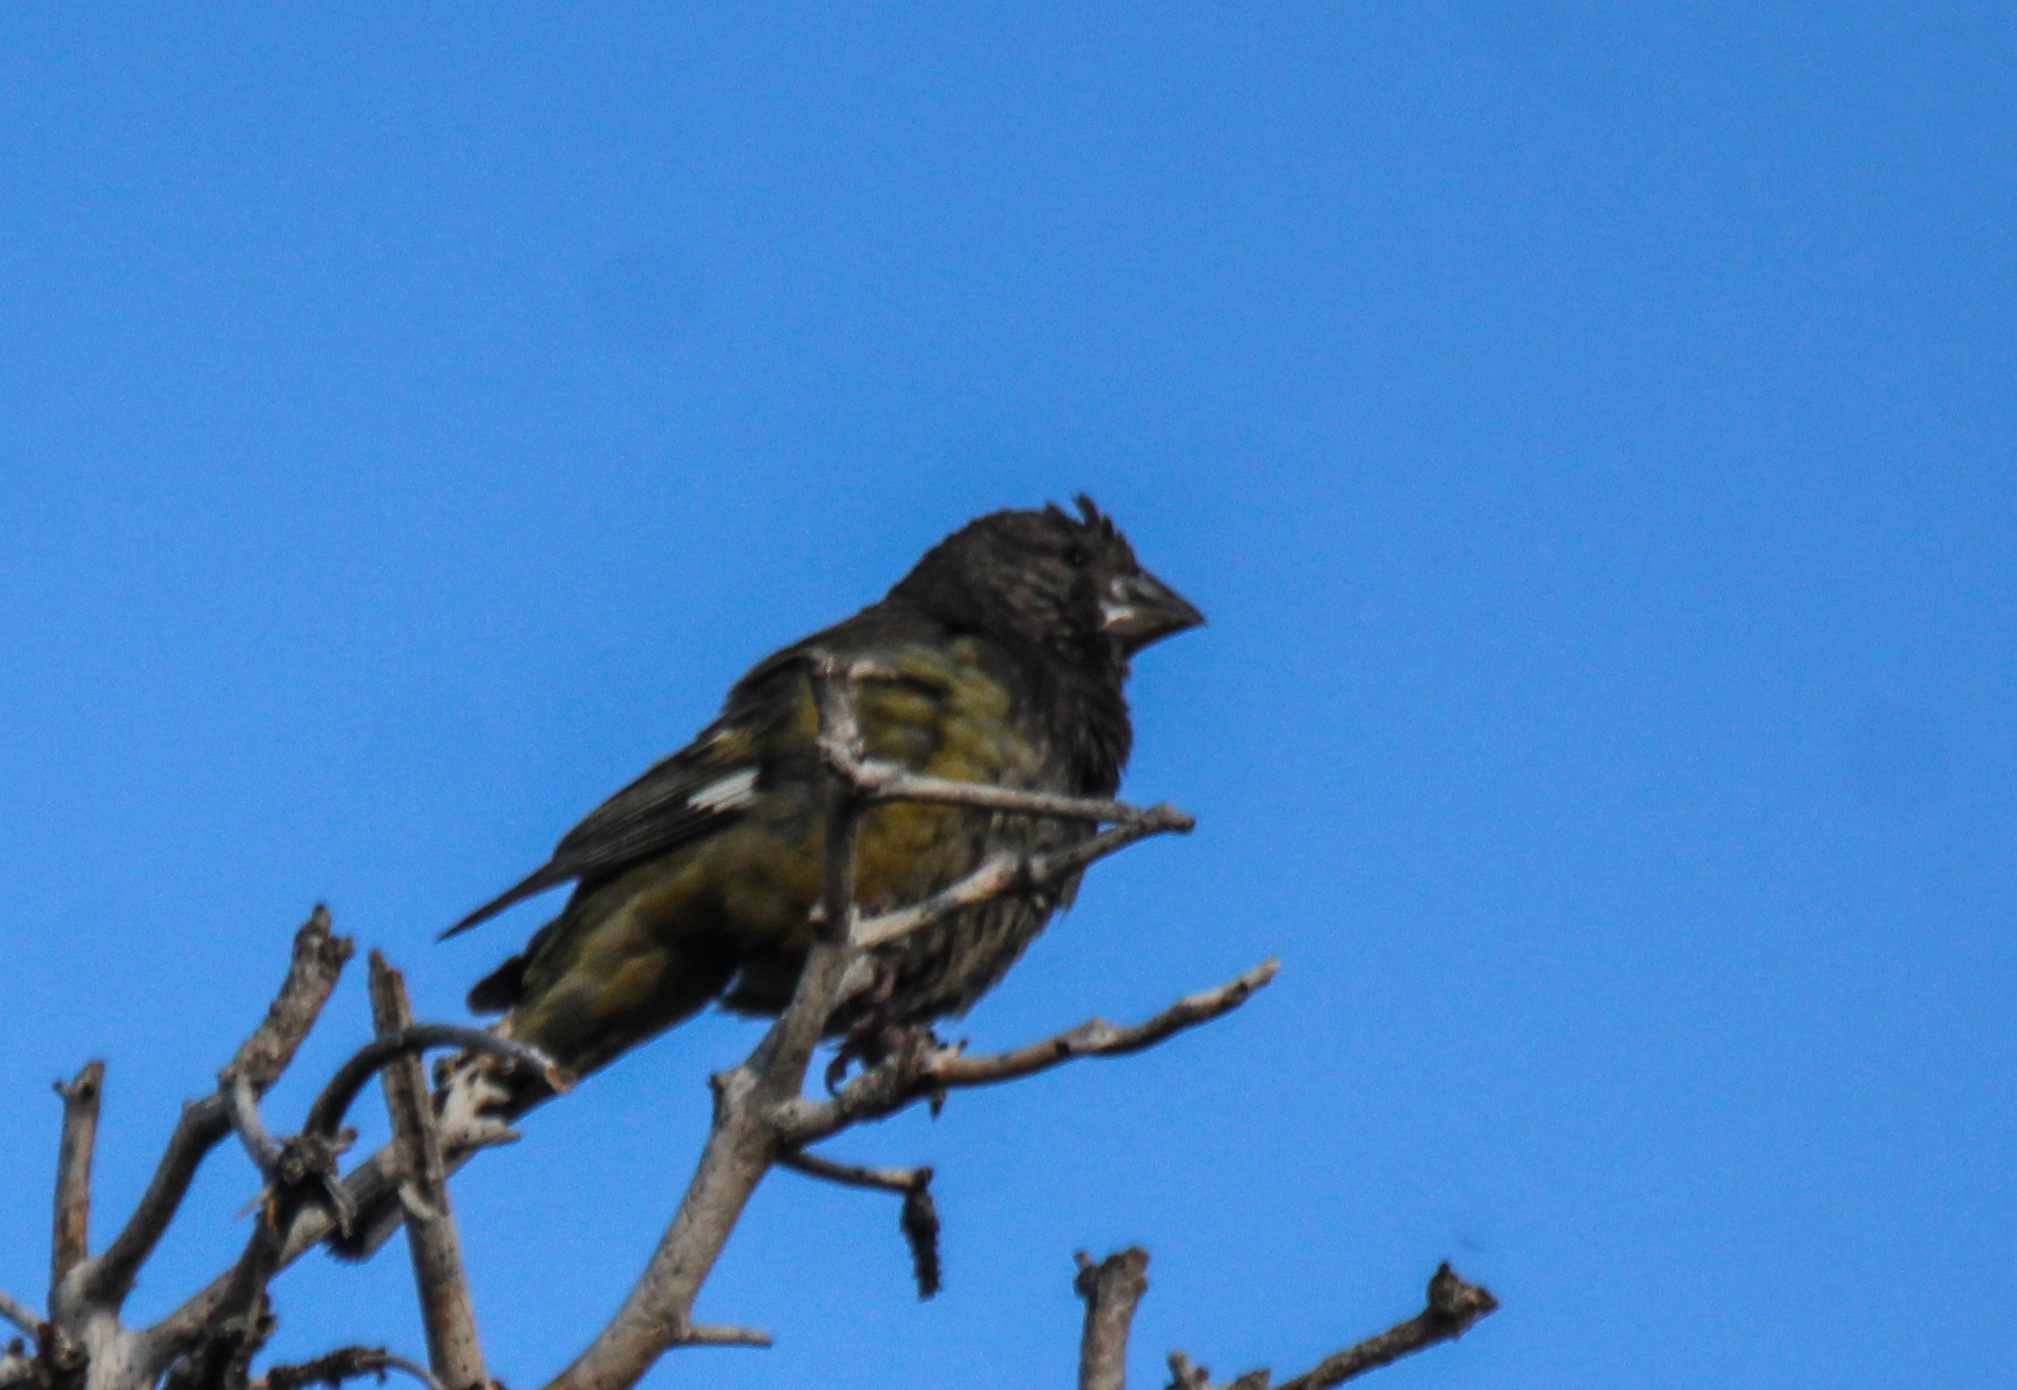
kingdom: Animalia
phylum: Chordata
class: Aves
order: Passeriformes
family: Fringillidae
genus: Mycerobas
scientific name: Mycerobas carnipes
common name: White-winged grosbeak
